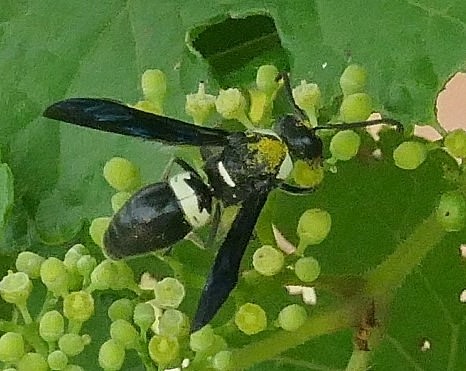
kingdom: Animalia
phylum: Arthropoda
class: Insecta
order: Hymenoptera
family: Eumenidae
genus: Monobia
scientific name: Monobia quadridens
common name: Four-toothed mason wasp
